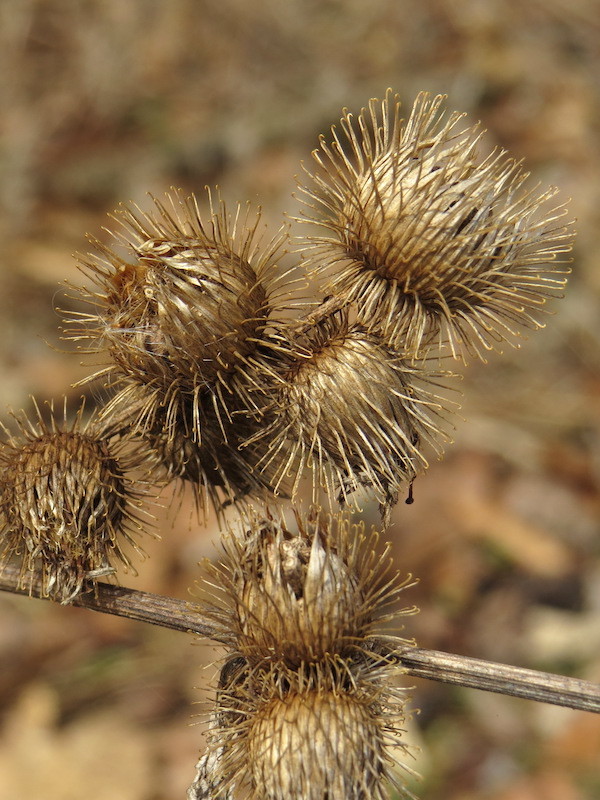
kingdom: Plantae
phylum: Tracheophyta
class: Magnoliopsida
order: Asterales
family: Asteraceae
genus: Arctium
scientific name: Arctium minus
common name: Lesser burdock
